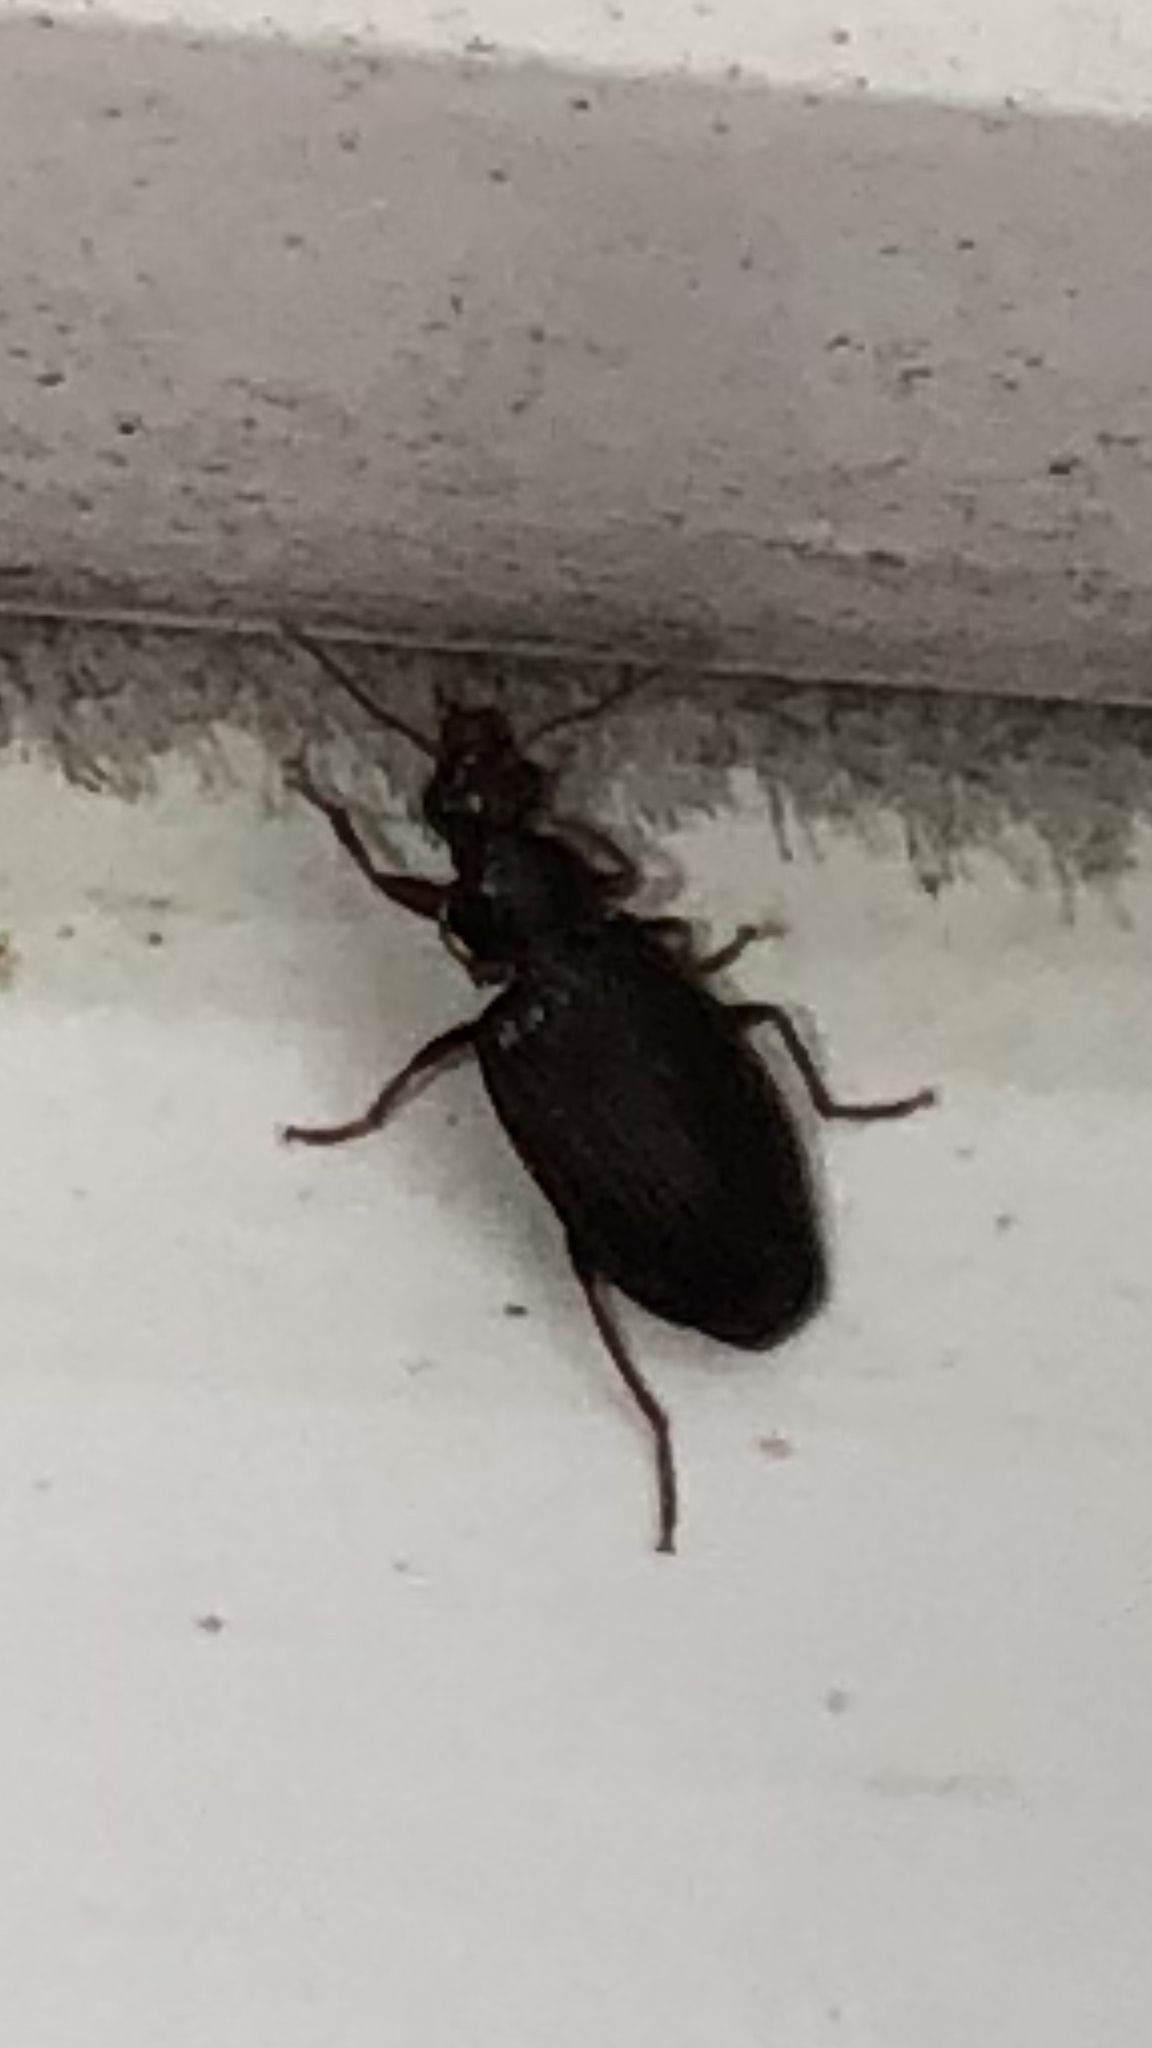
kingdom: Animalia
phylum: Arthropoda
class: Insecta
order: Coleoptera
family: Carabidae
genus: Plochionus
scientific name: Plochionus timidus
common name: Timid harp ground beetle
